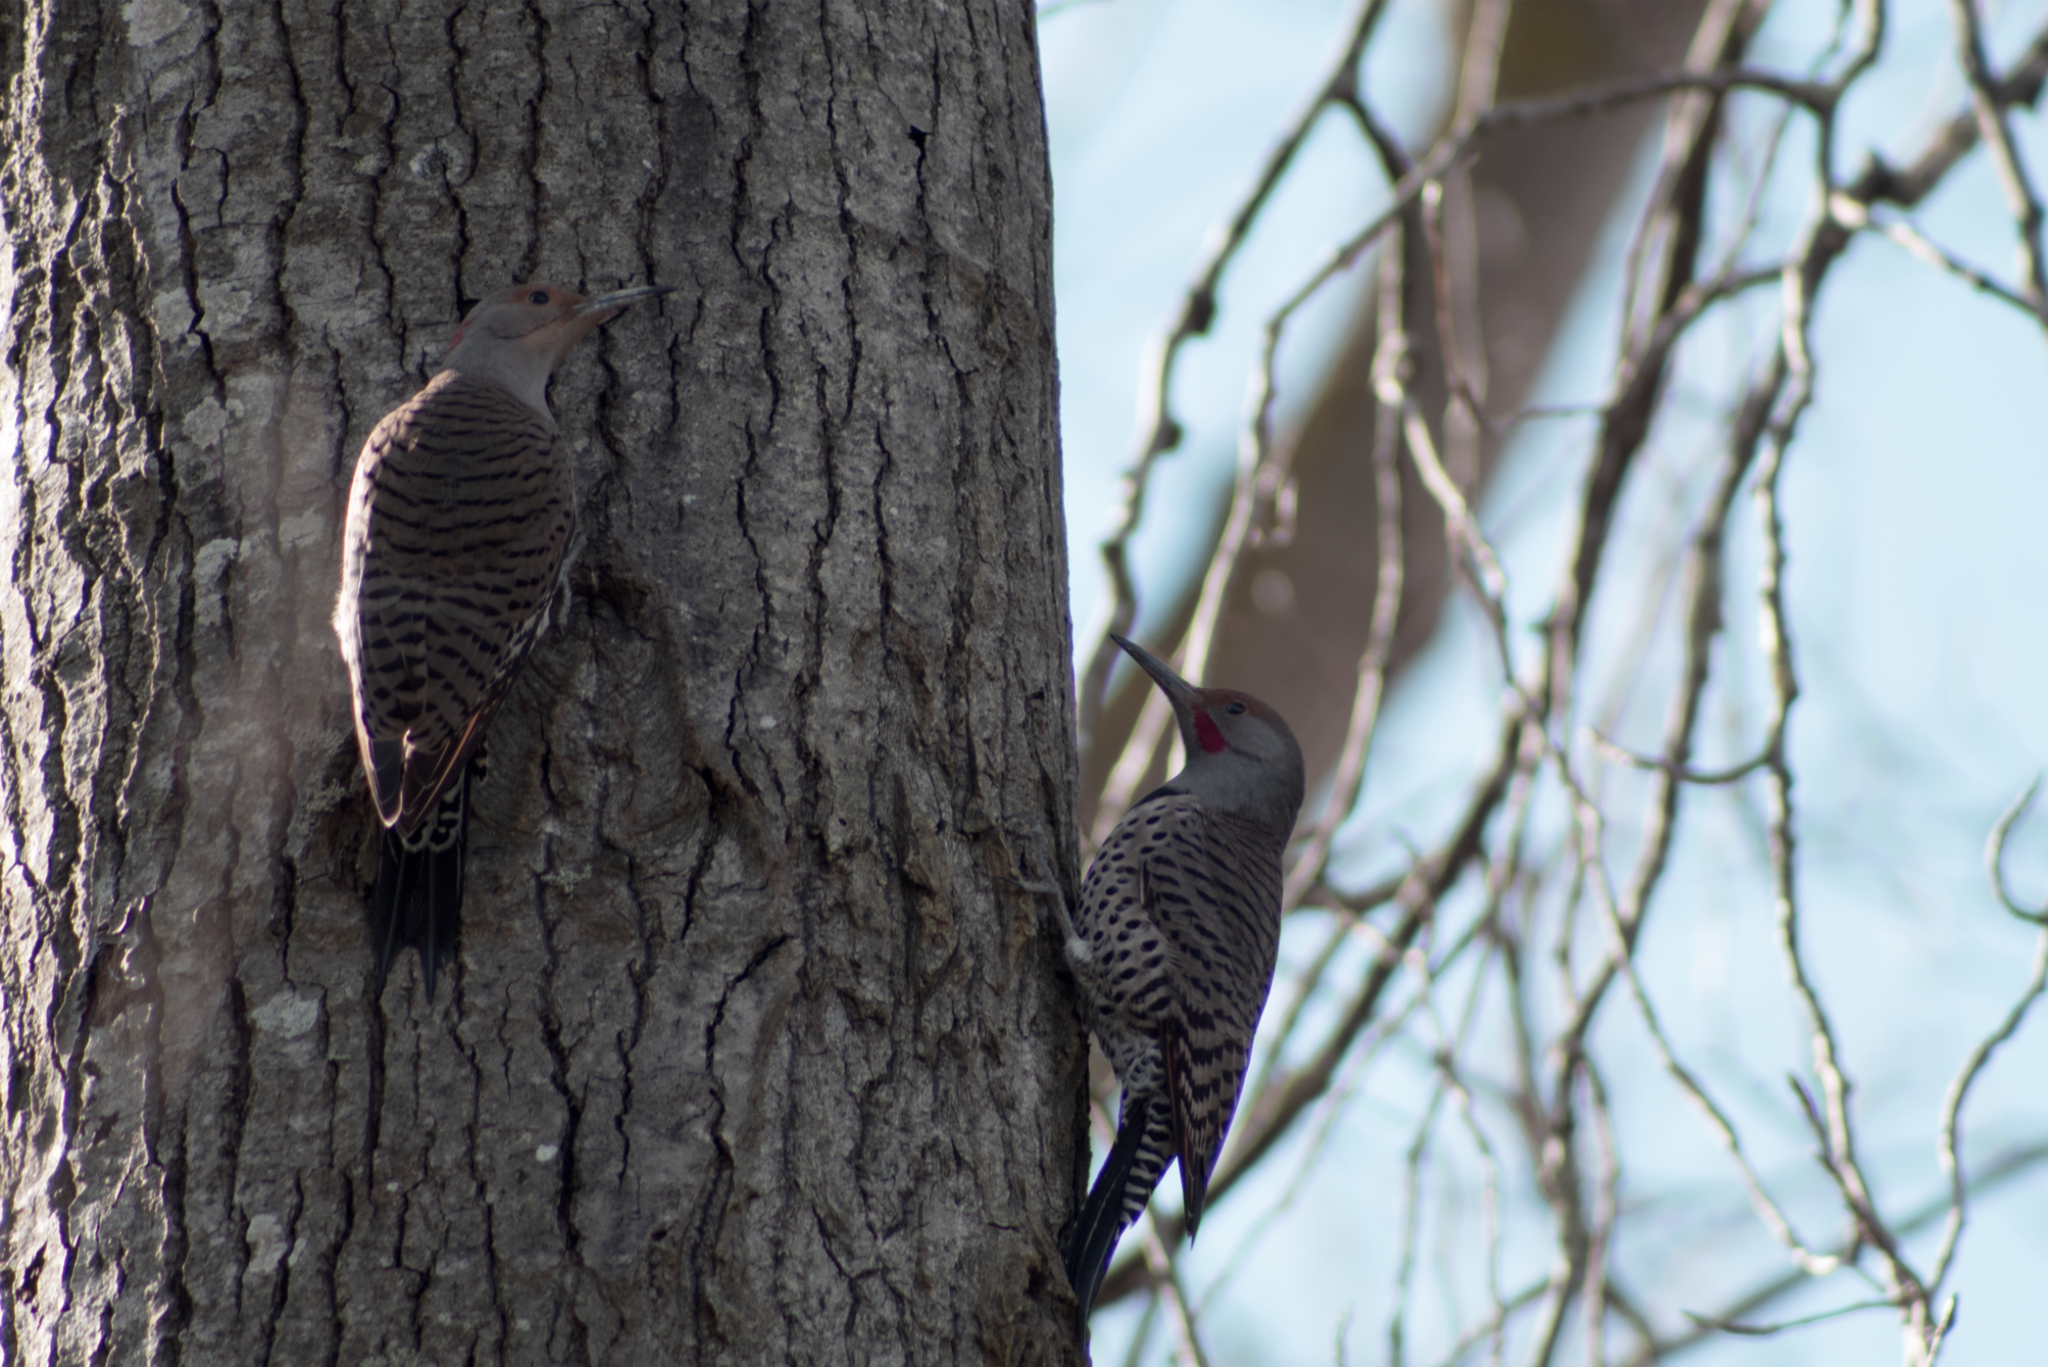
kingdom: Animalia
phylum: Chordata
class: Aves
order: Piciformes
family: Picidae
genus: Colaptes
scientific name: Colaptes auratus
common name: Northern flicker
